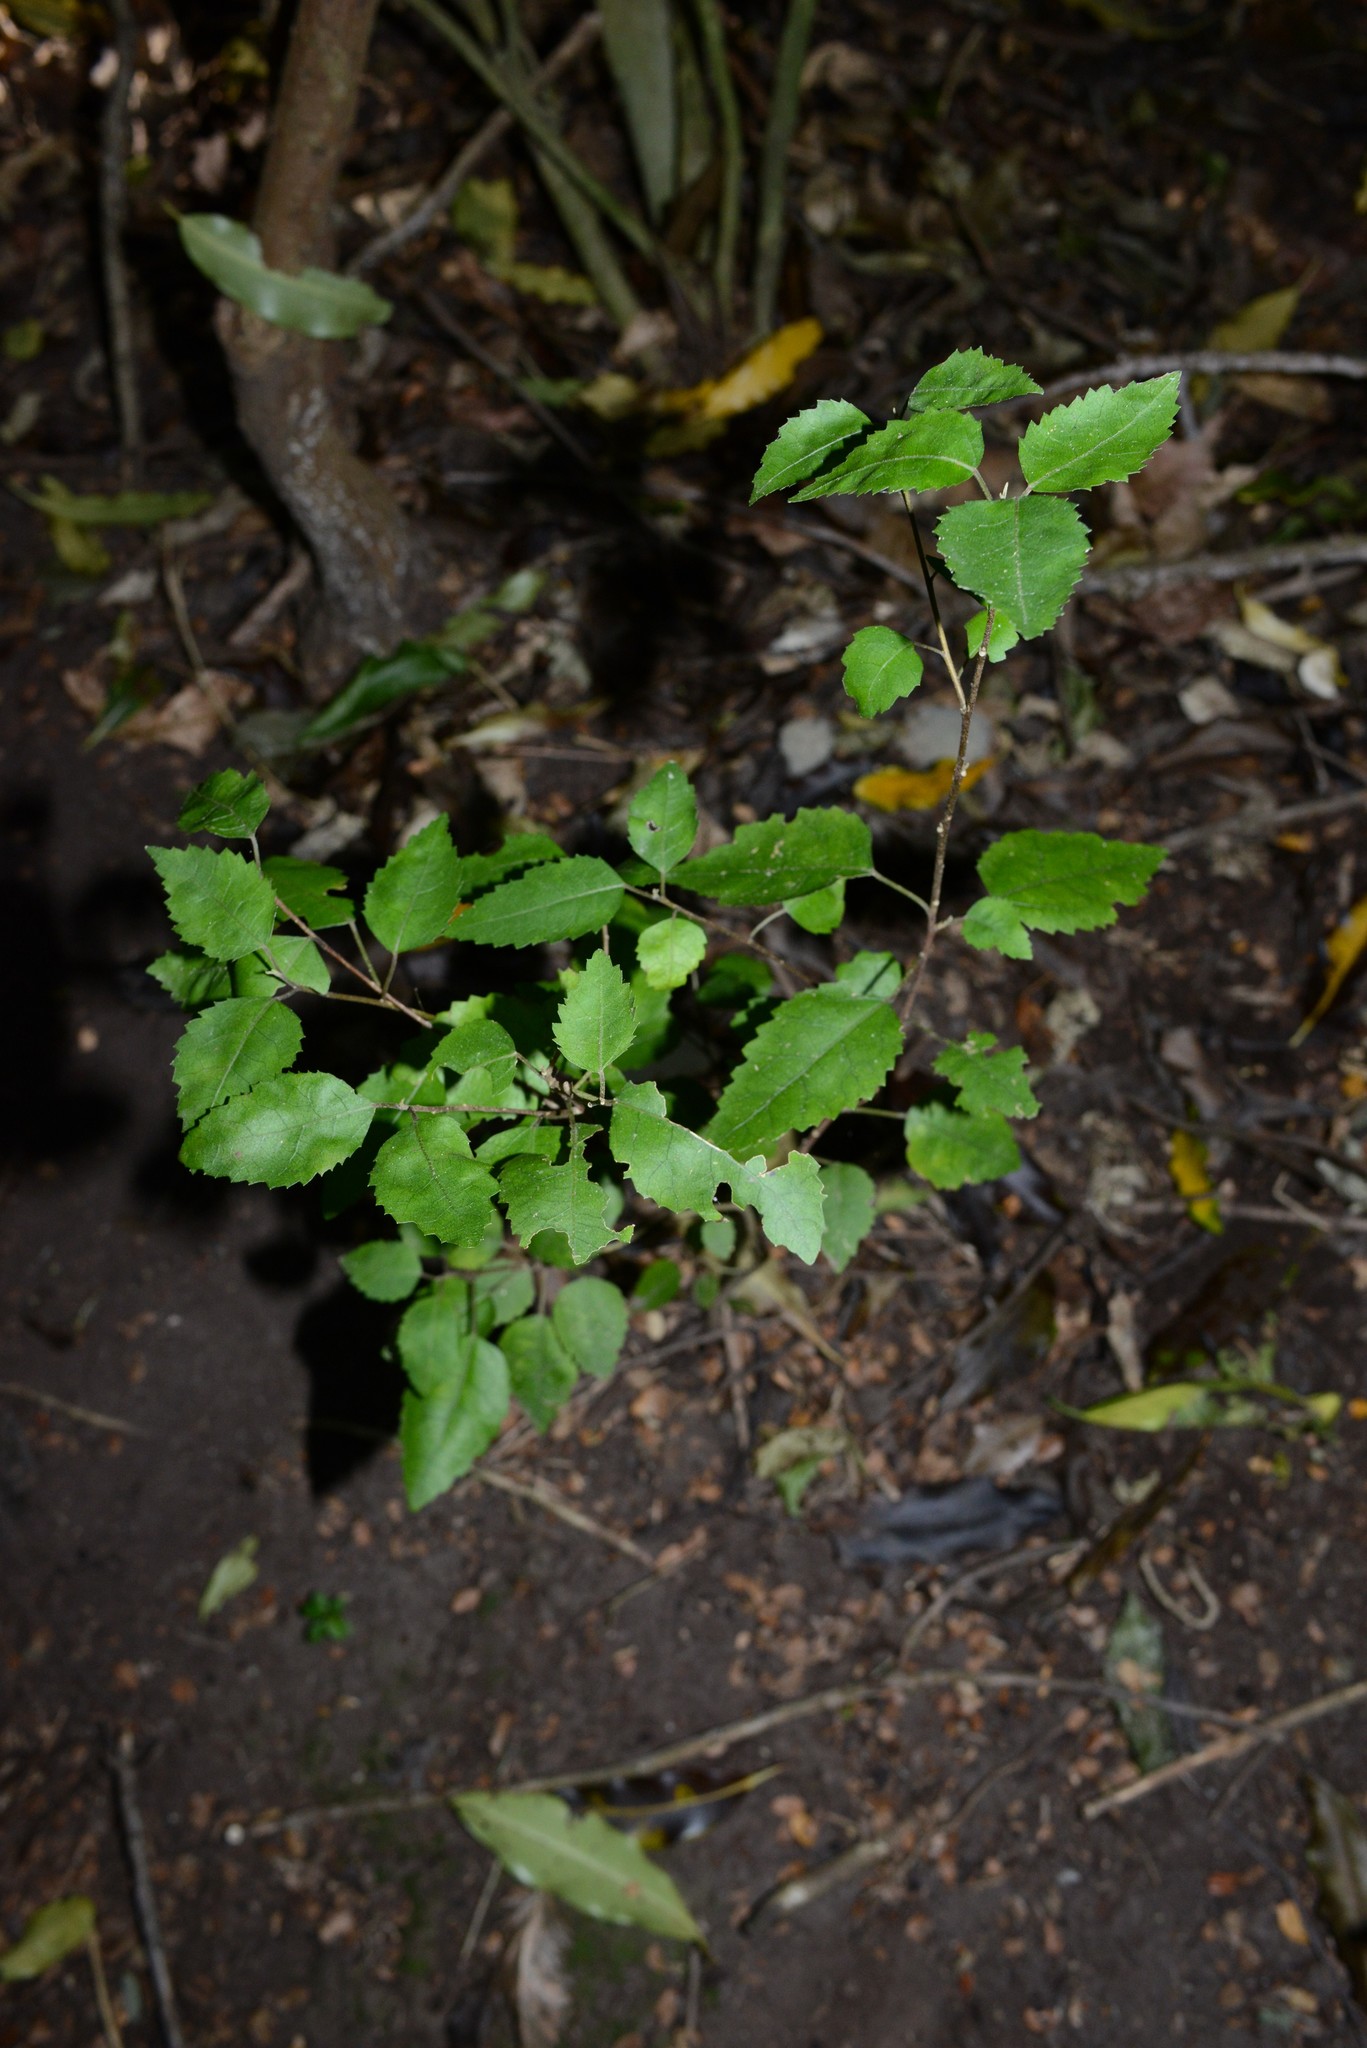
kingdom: Plantae
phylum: Tracheophyta
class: Magnoliopsida
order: Malvales
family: Malvaceae
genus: Hoheria
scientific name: Hoheria populnea
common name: Lacebark
